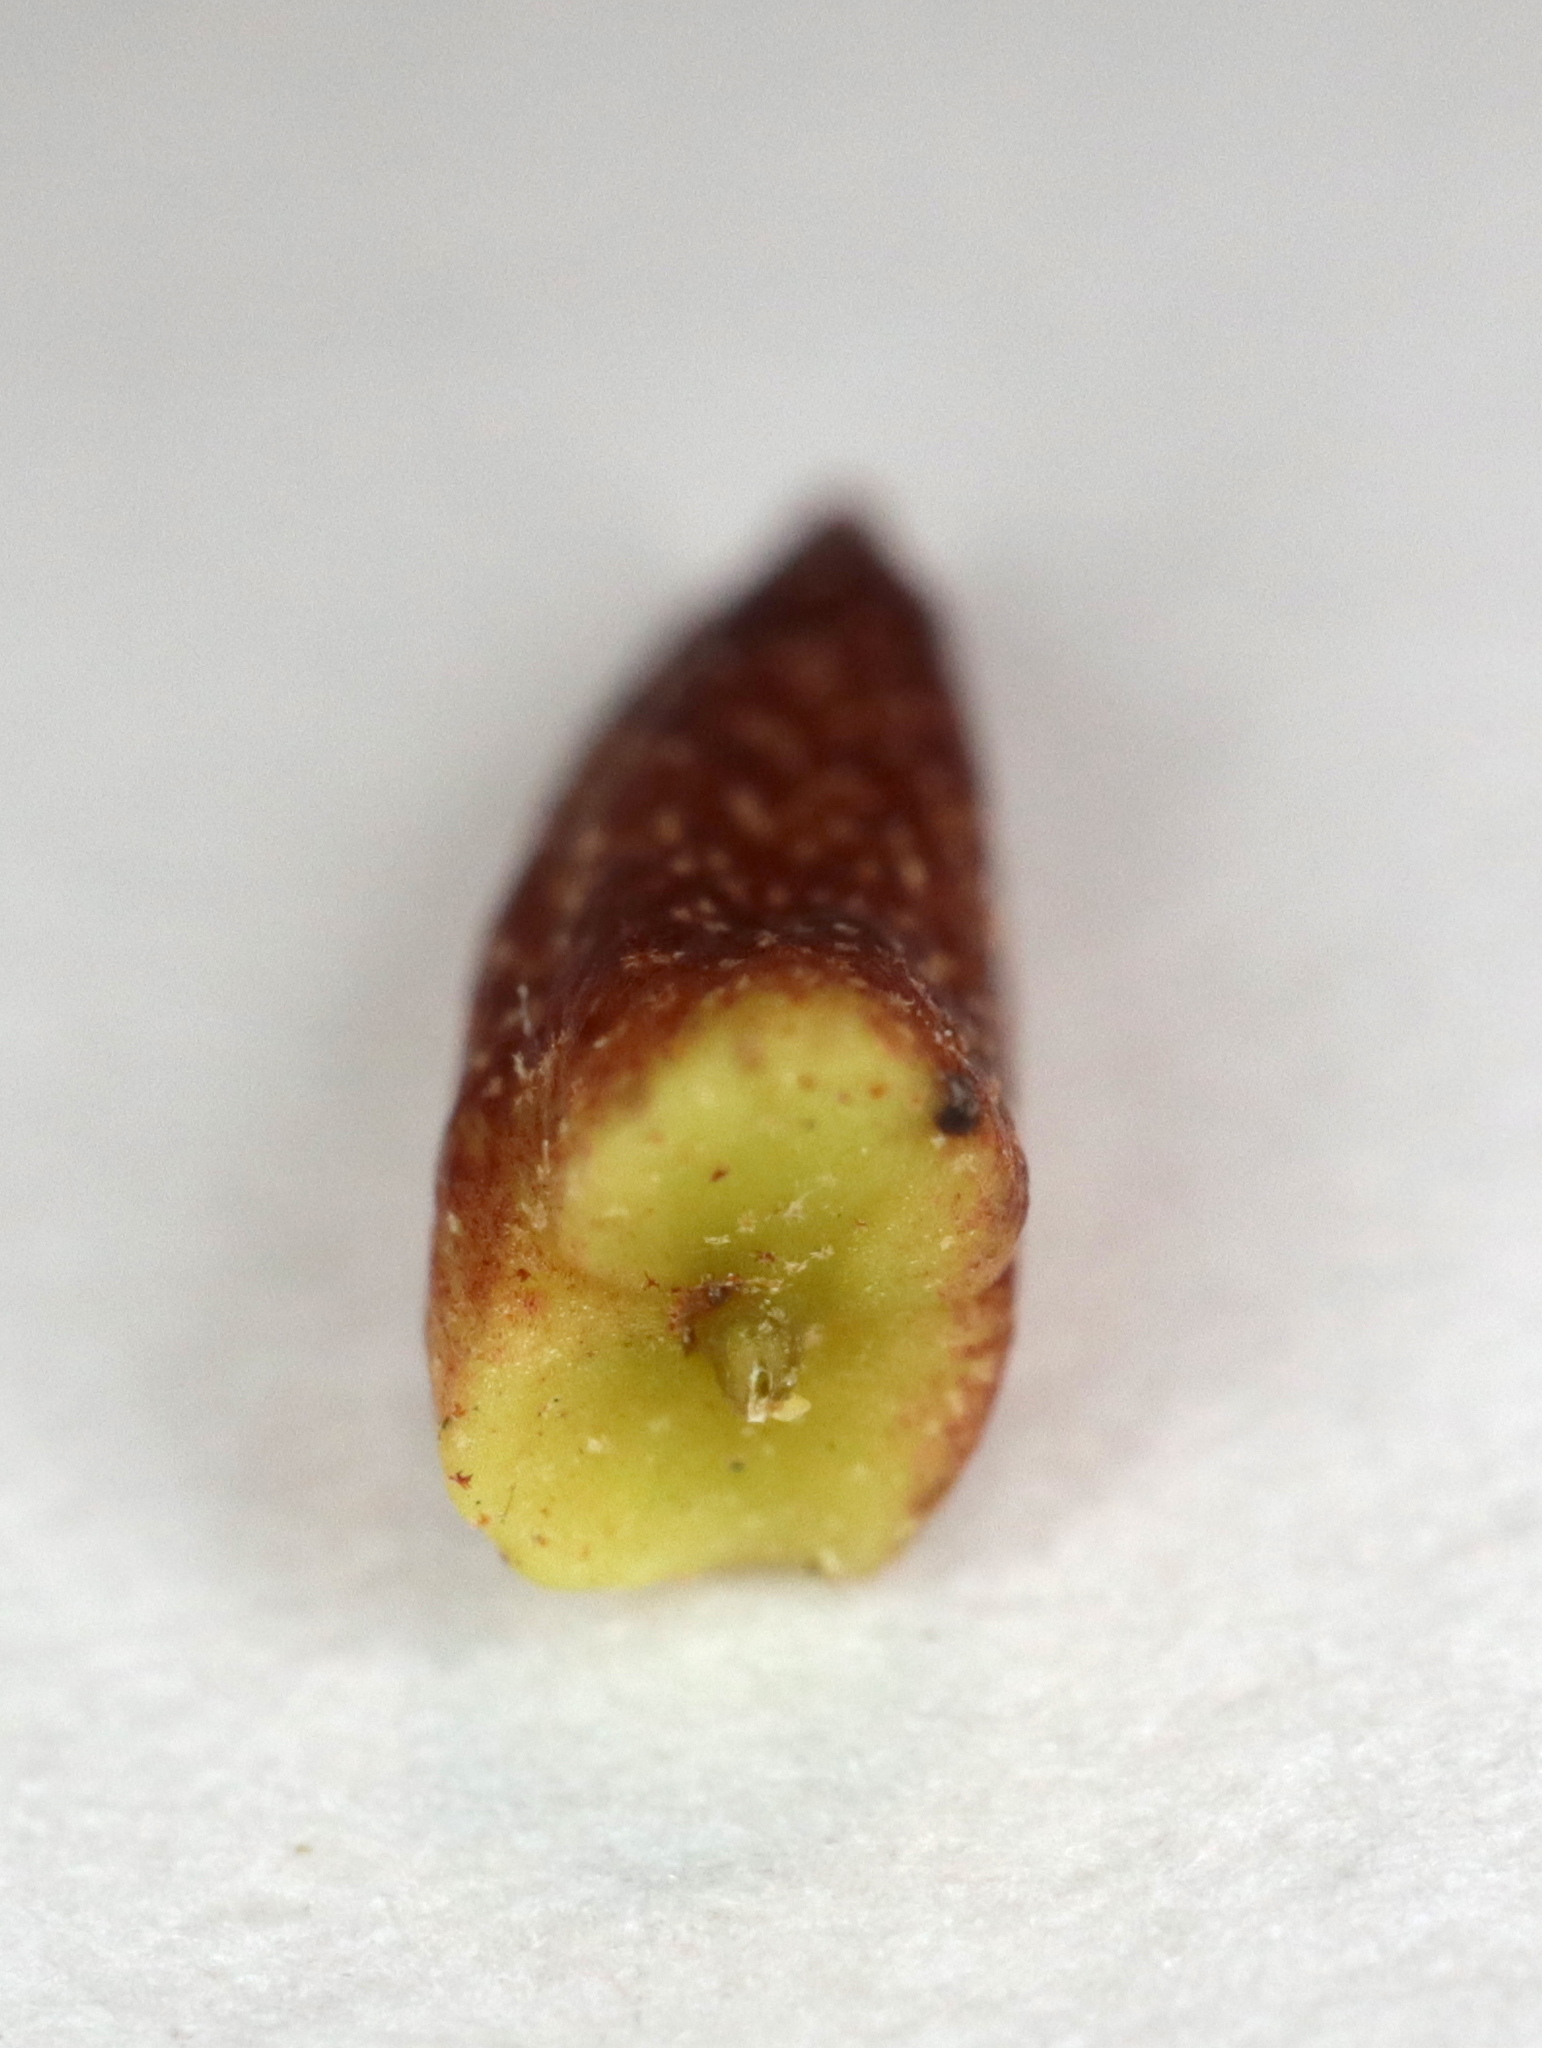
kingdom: Animalia
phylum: Arthropoda
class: Insecta
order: Hymenoptera
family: Cynipidae
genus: Zopheroteras
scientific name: Zopheroteras
